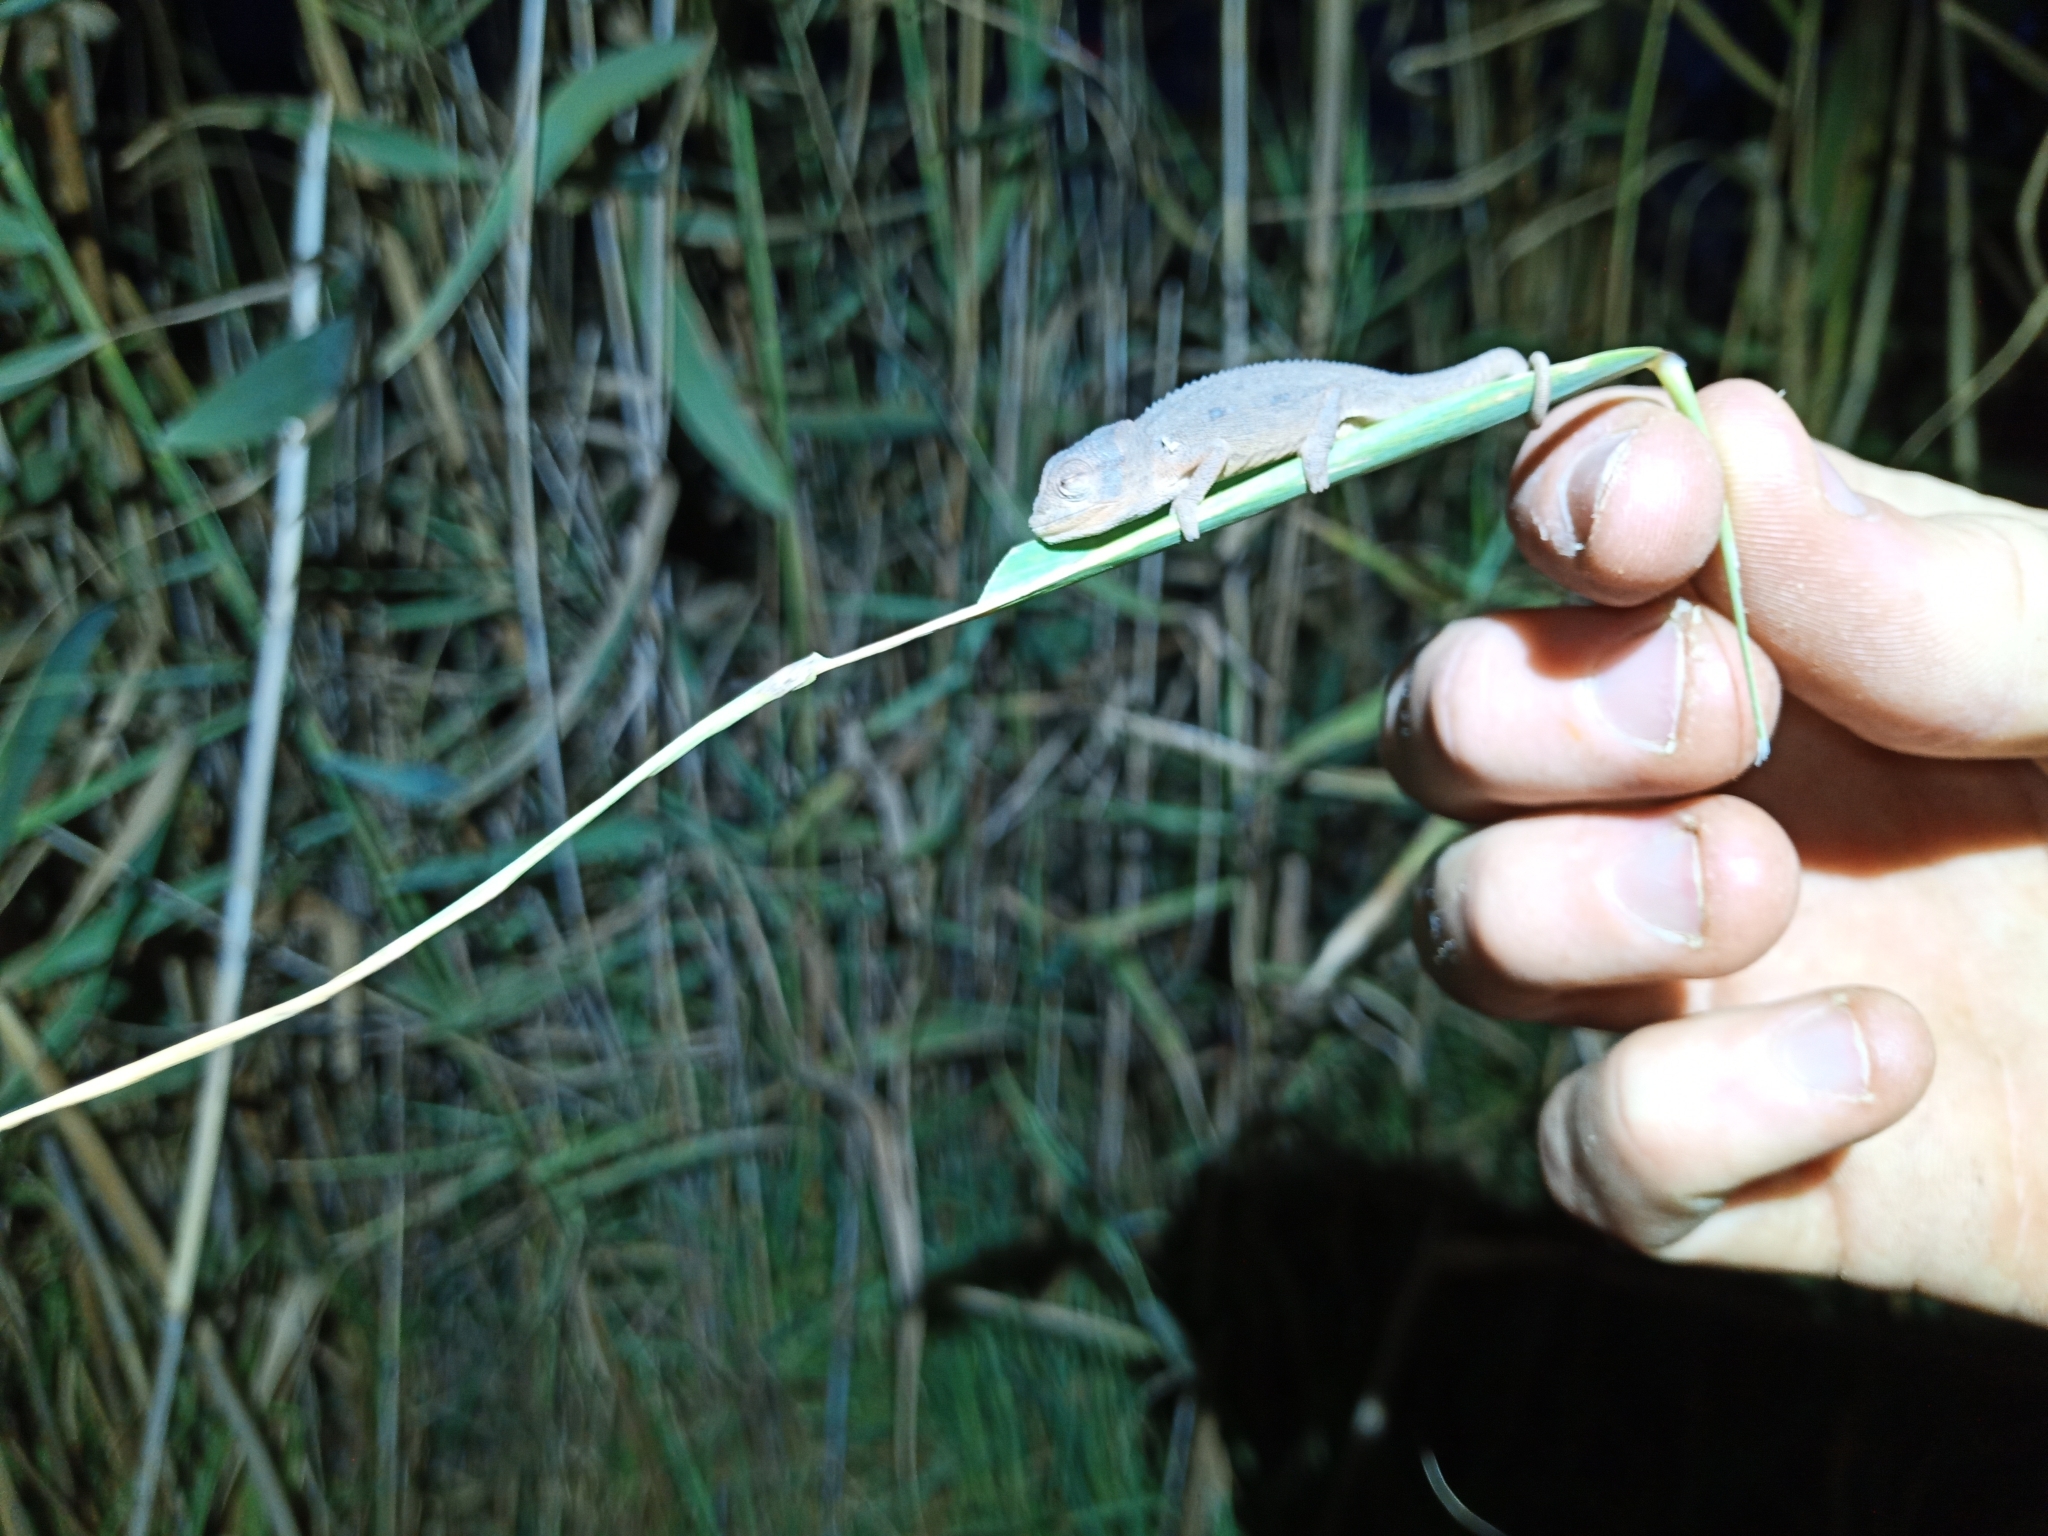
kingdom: Animalia
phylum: Chordata
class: Squamata
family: Chamaeleonidae
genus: Bradypodion
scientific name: Bradypodion pumilum
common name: Cape dwarf chameleon
